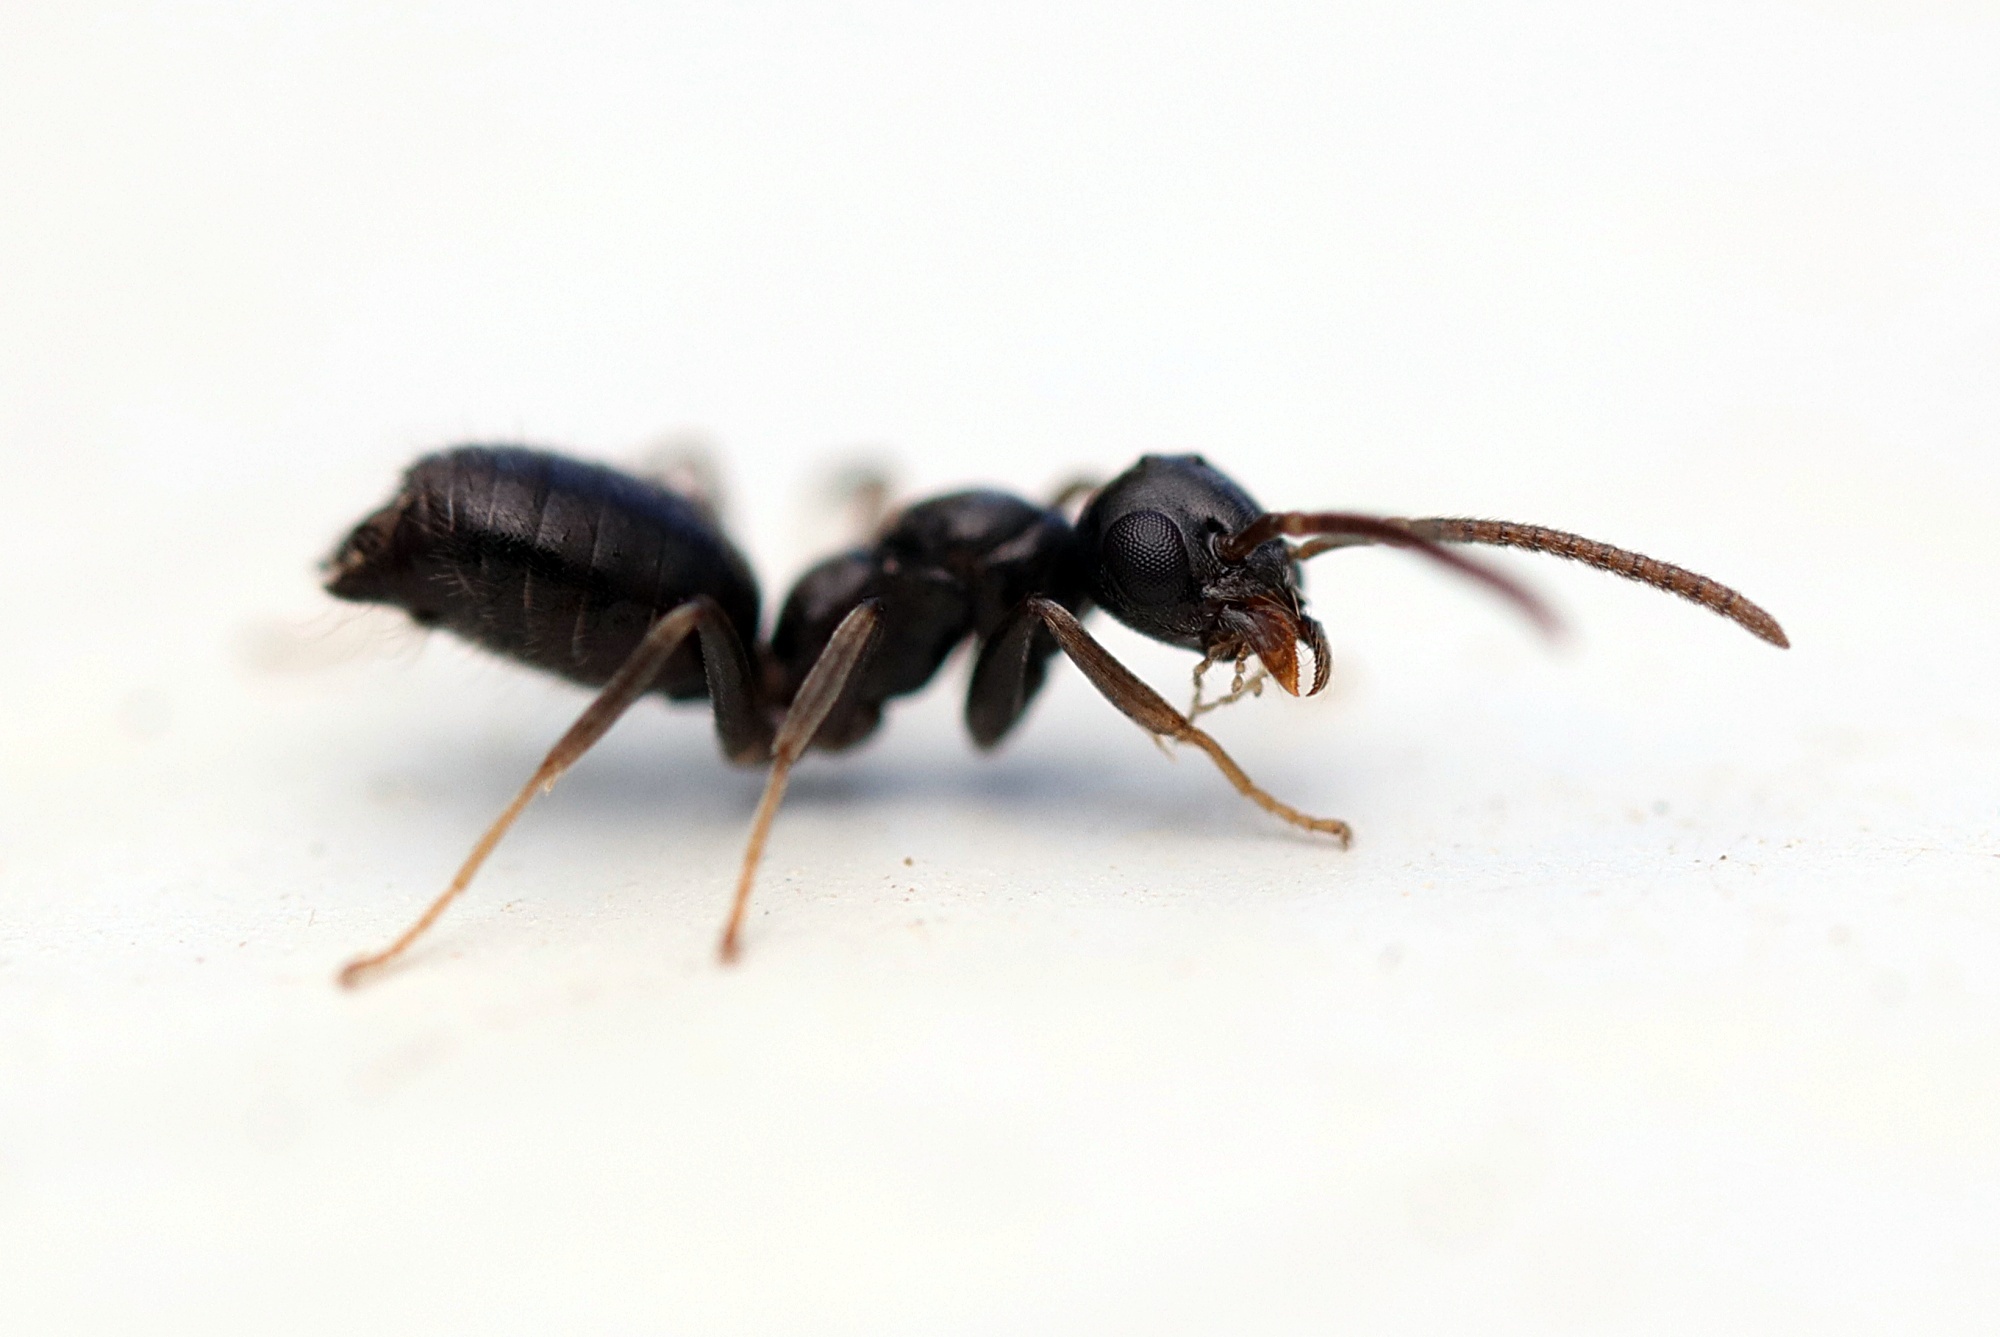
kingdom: Animalia
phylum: Arthropoda
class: Insecta
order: Hymenoptera
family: Formicidae
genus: Technomyrmex
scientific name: Technomyrmex jocosus
